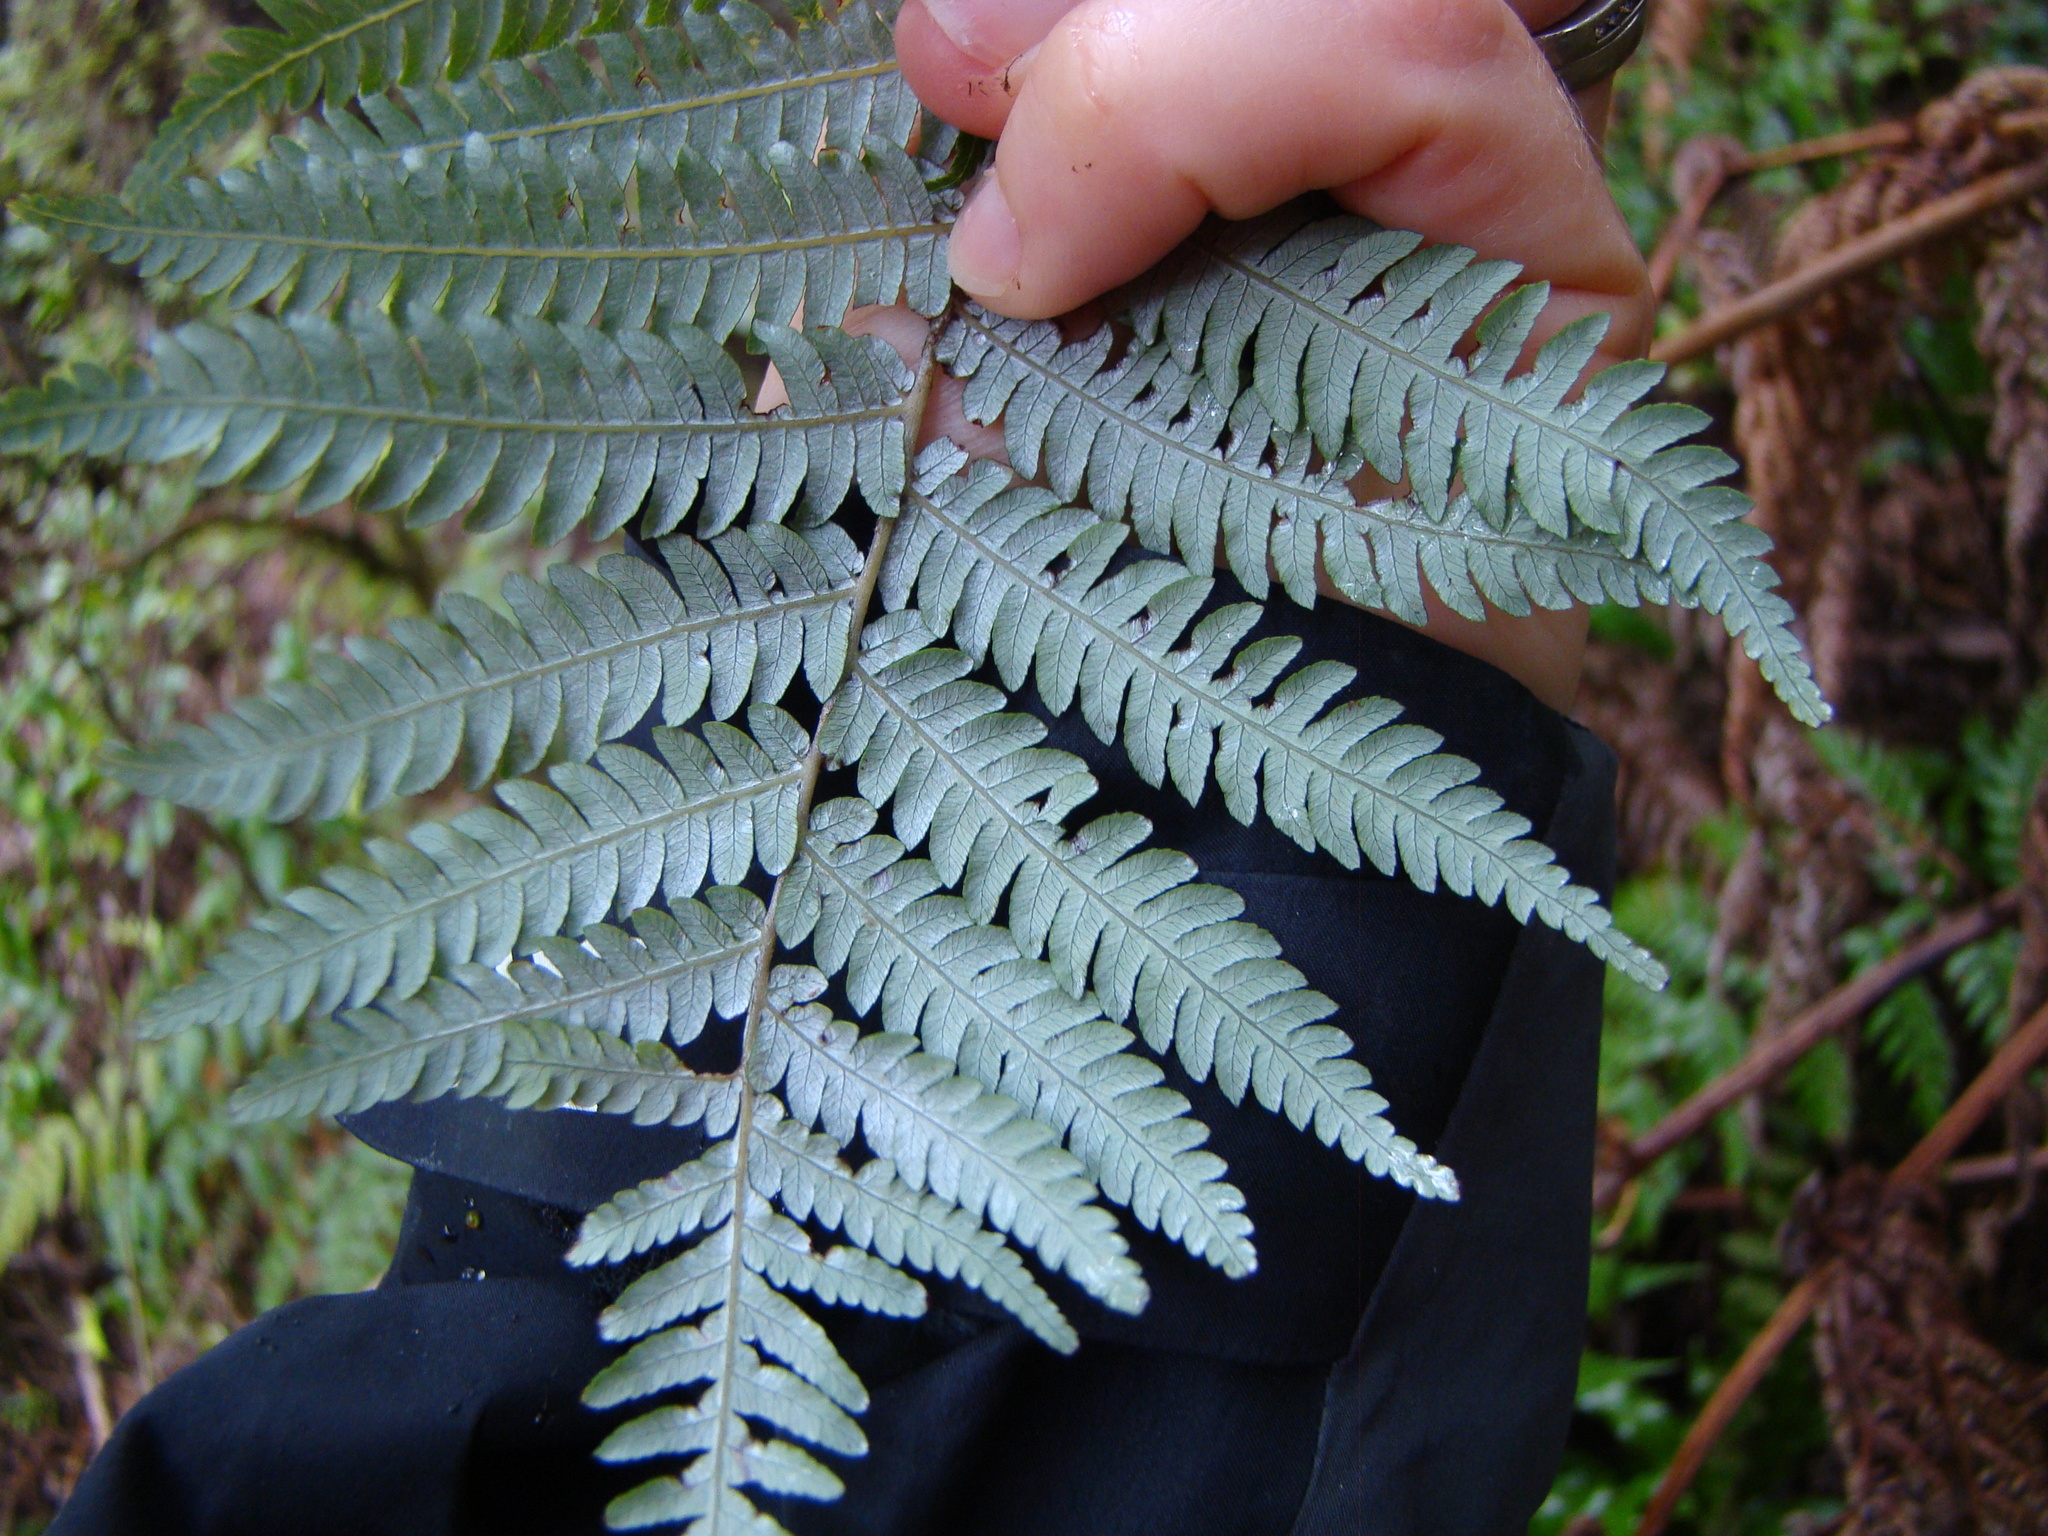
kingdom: Plantae
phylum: Tracheophyta
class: Polypodiopsida
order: Cyatheales
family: Cyatheaceae
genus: Alsophila
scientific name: Alsophila dealbata
